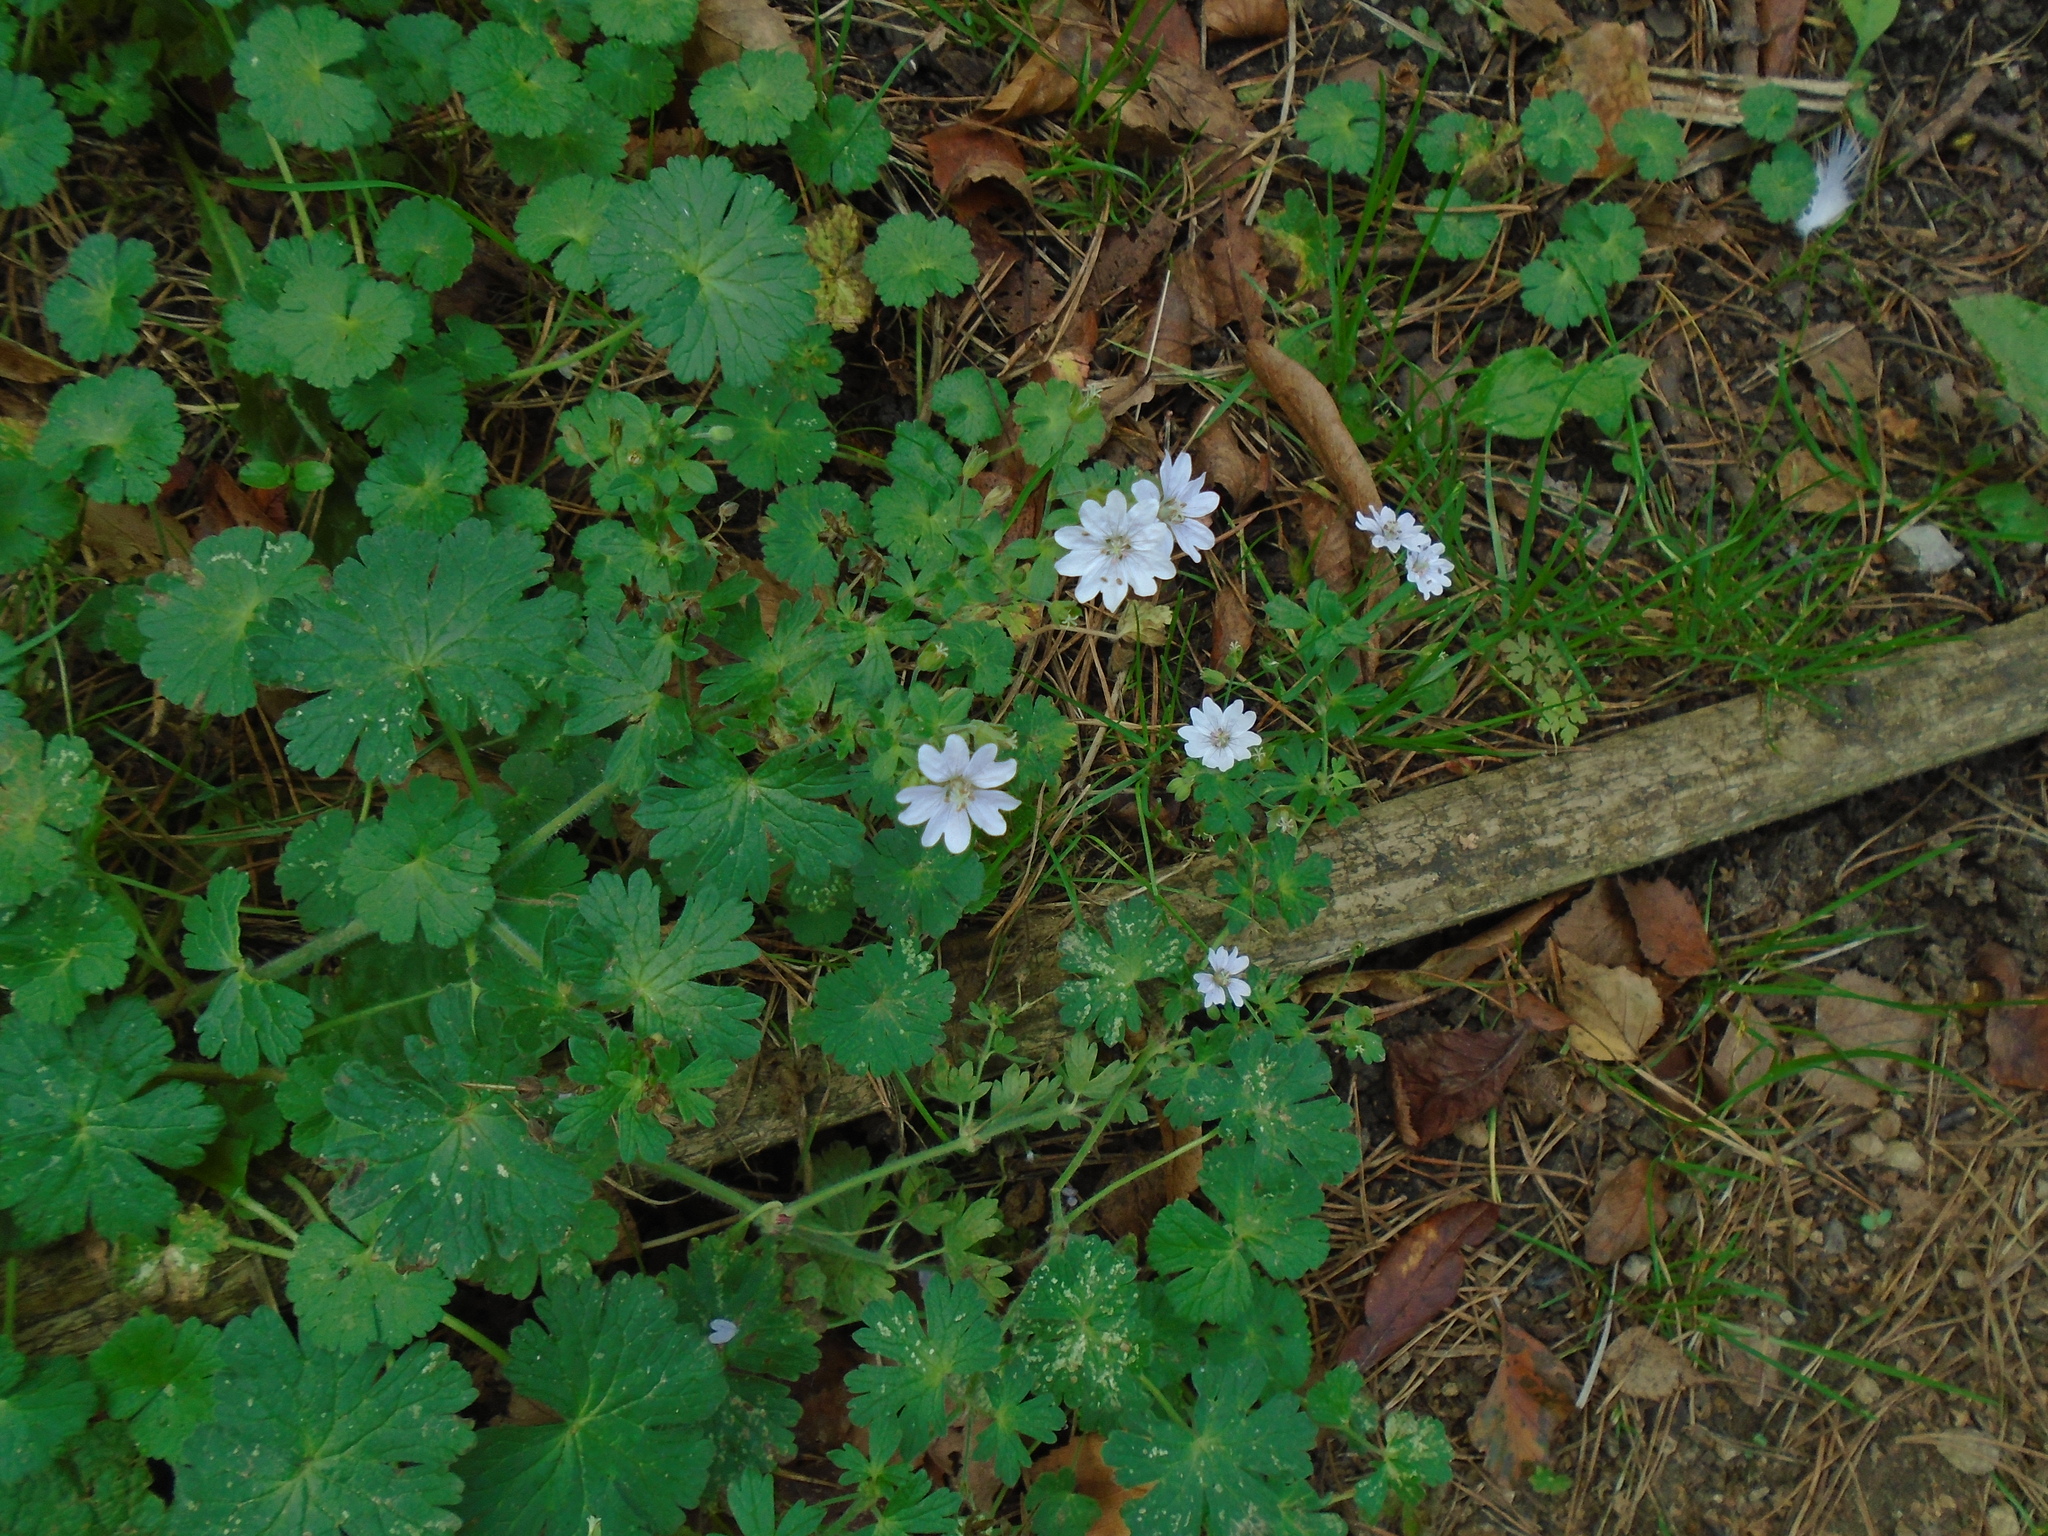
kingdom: Plantae
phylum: Tracheophyta
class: Magnoliopsida
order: Geraniales
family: Geraniaceae
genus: Geranium
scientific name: Geranium pyrenaicum
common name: Hedgerow crane's-bill
